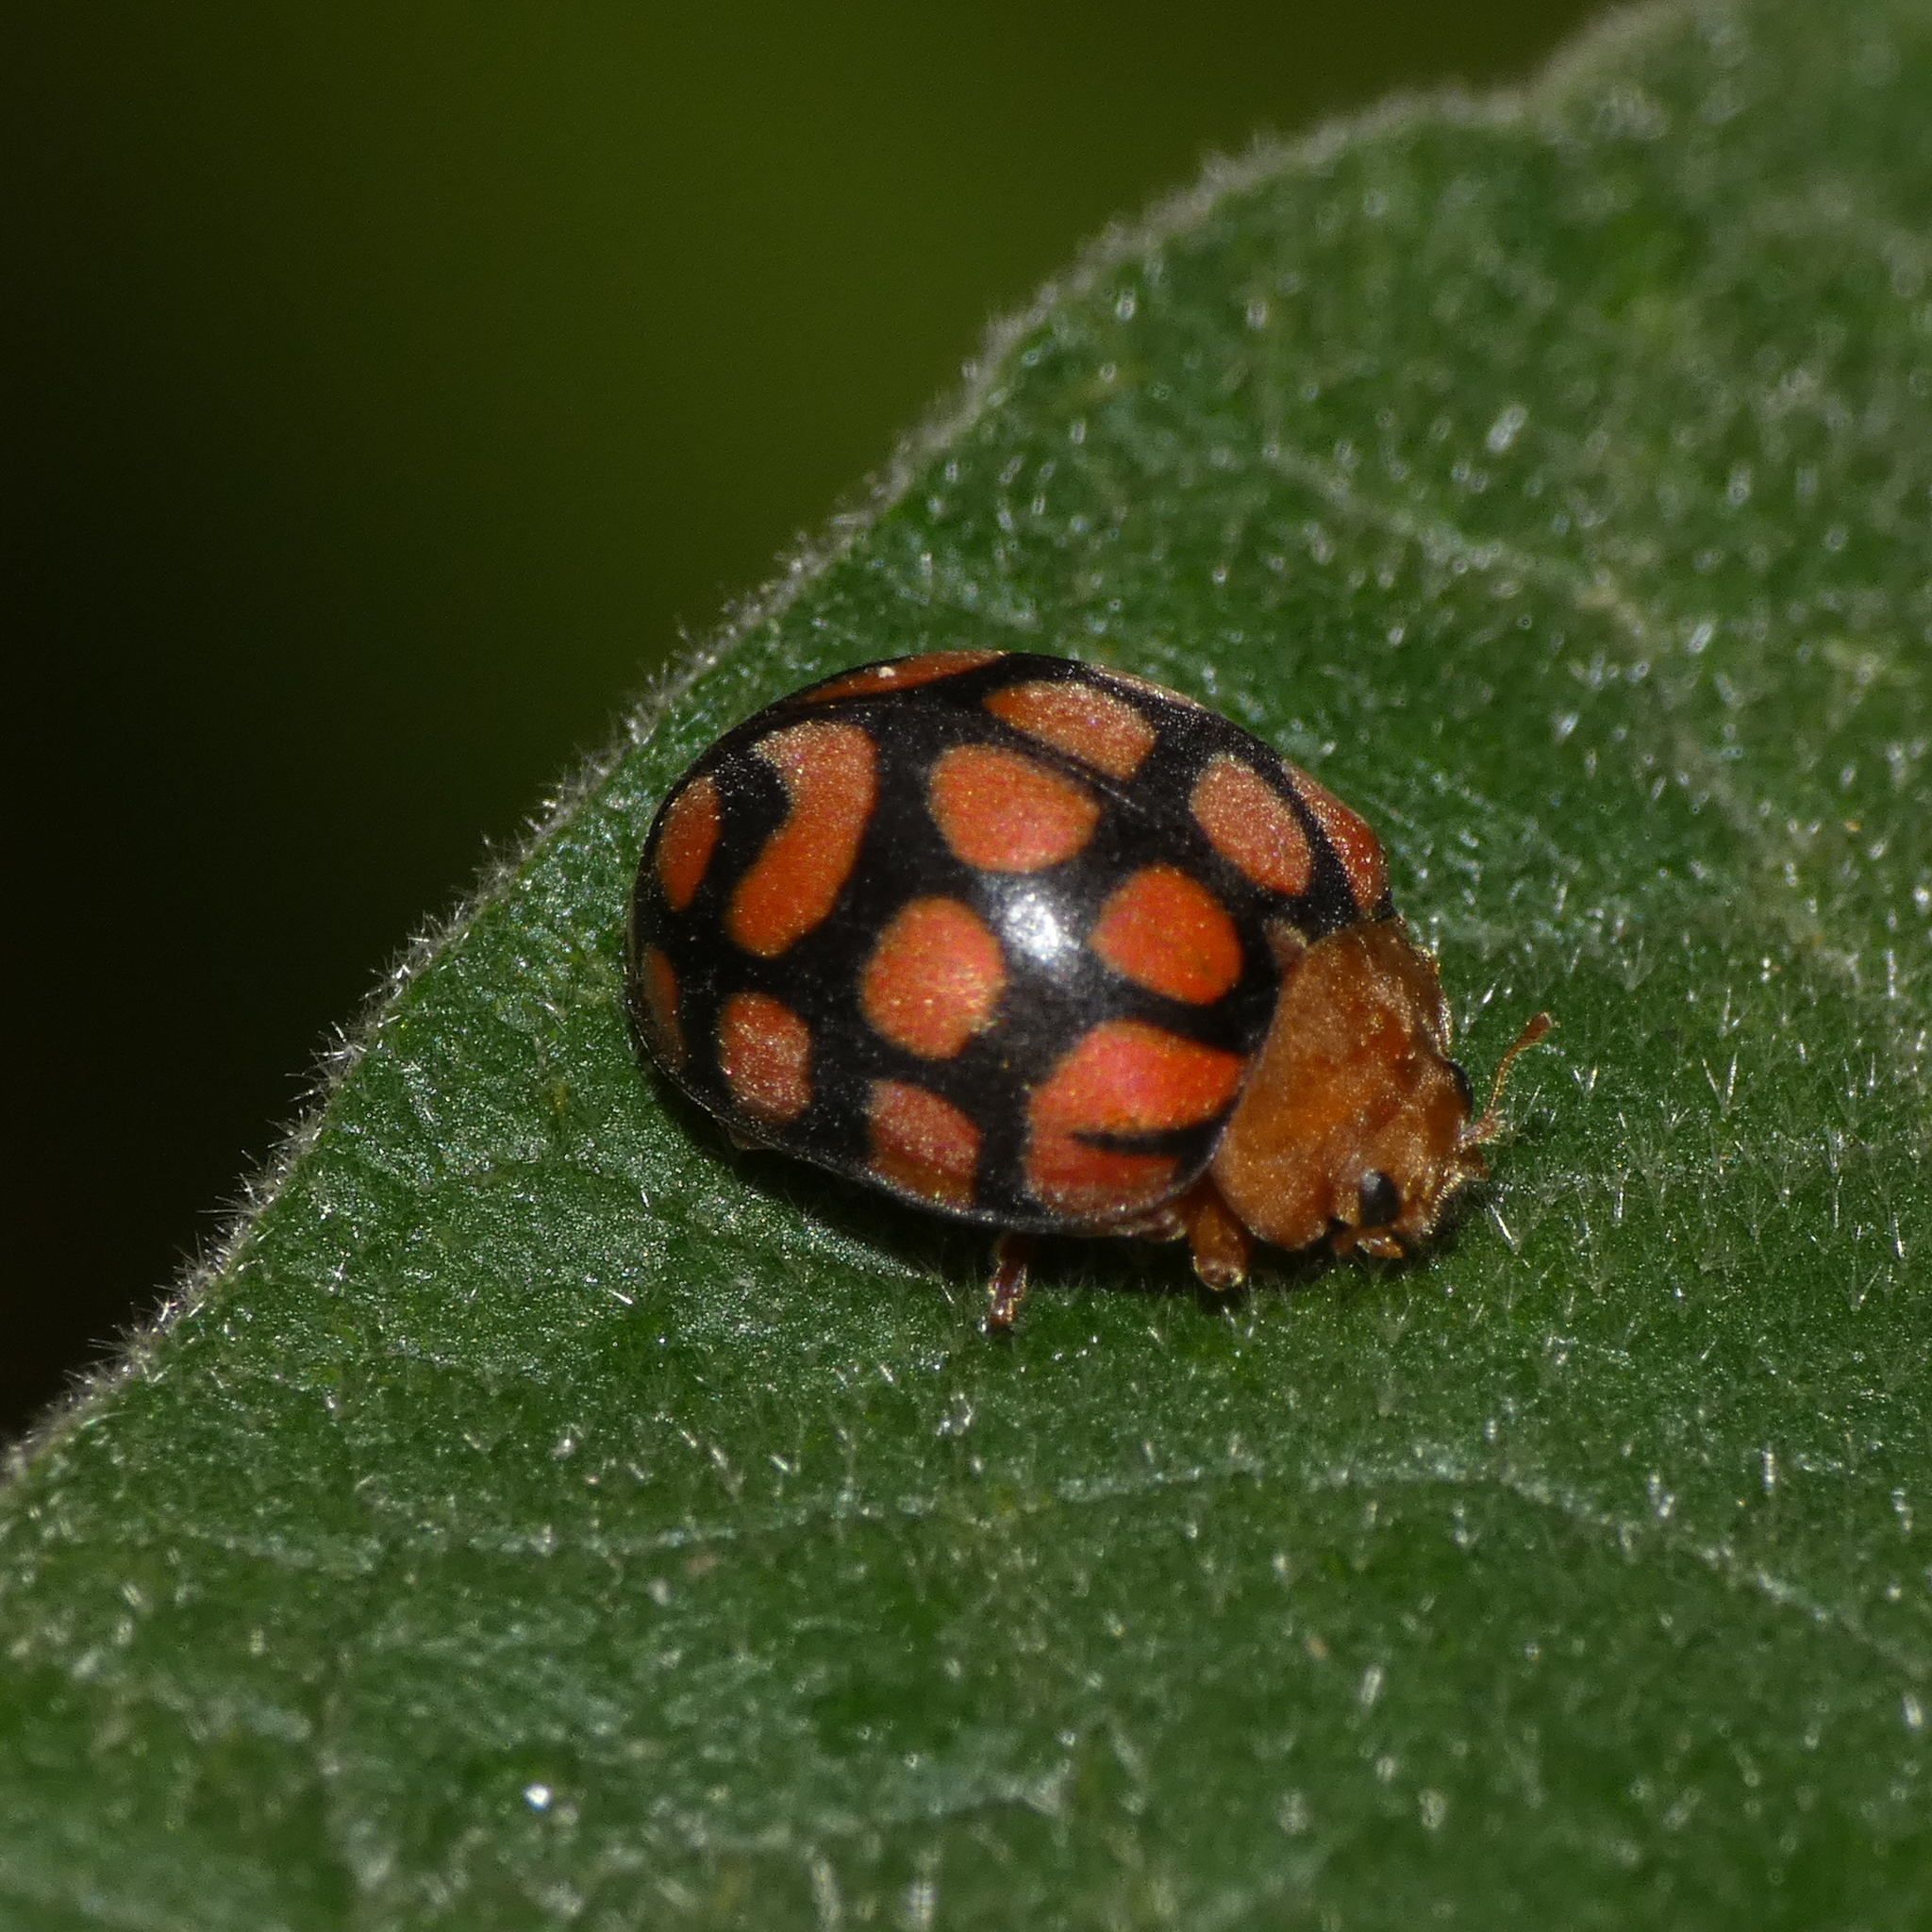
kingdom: Animalia
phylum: Arthropoda
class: Insecta
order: Coleoptera
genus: Solanophila
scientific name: Solanophila
